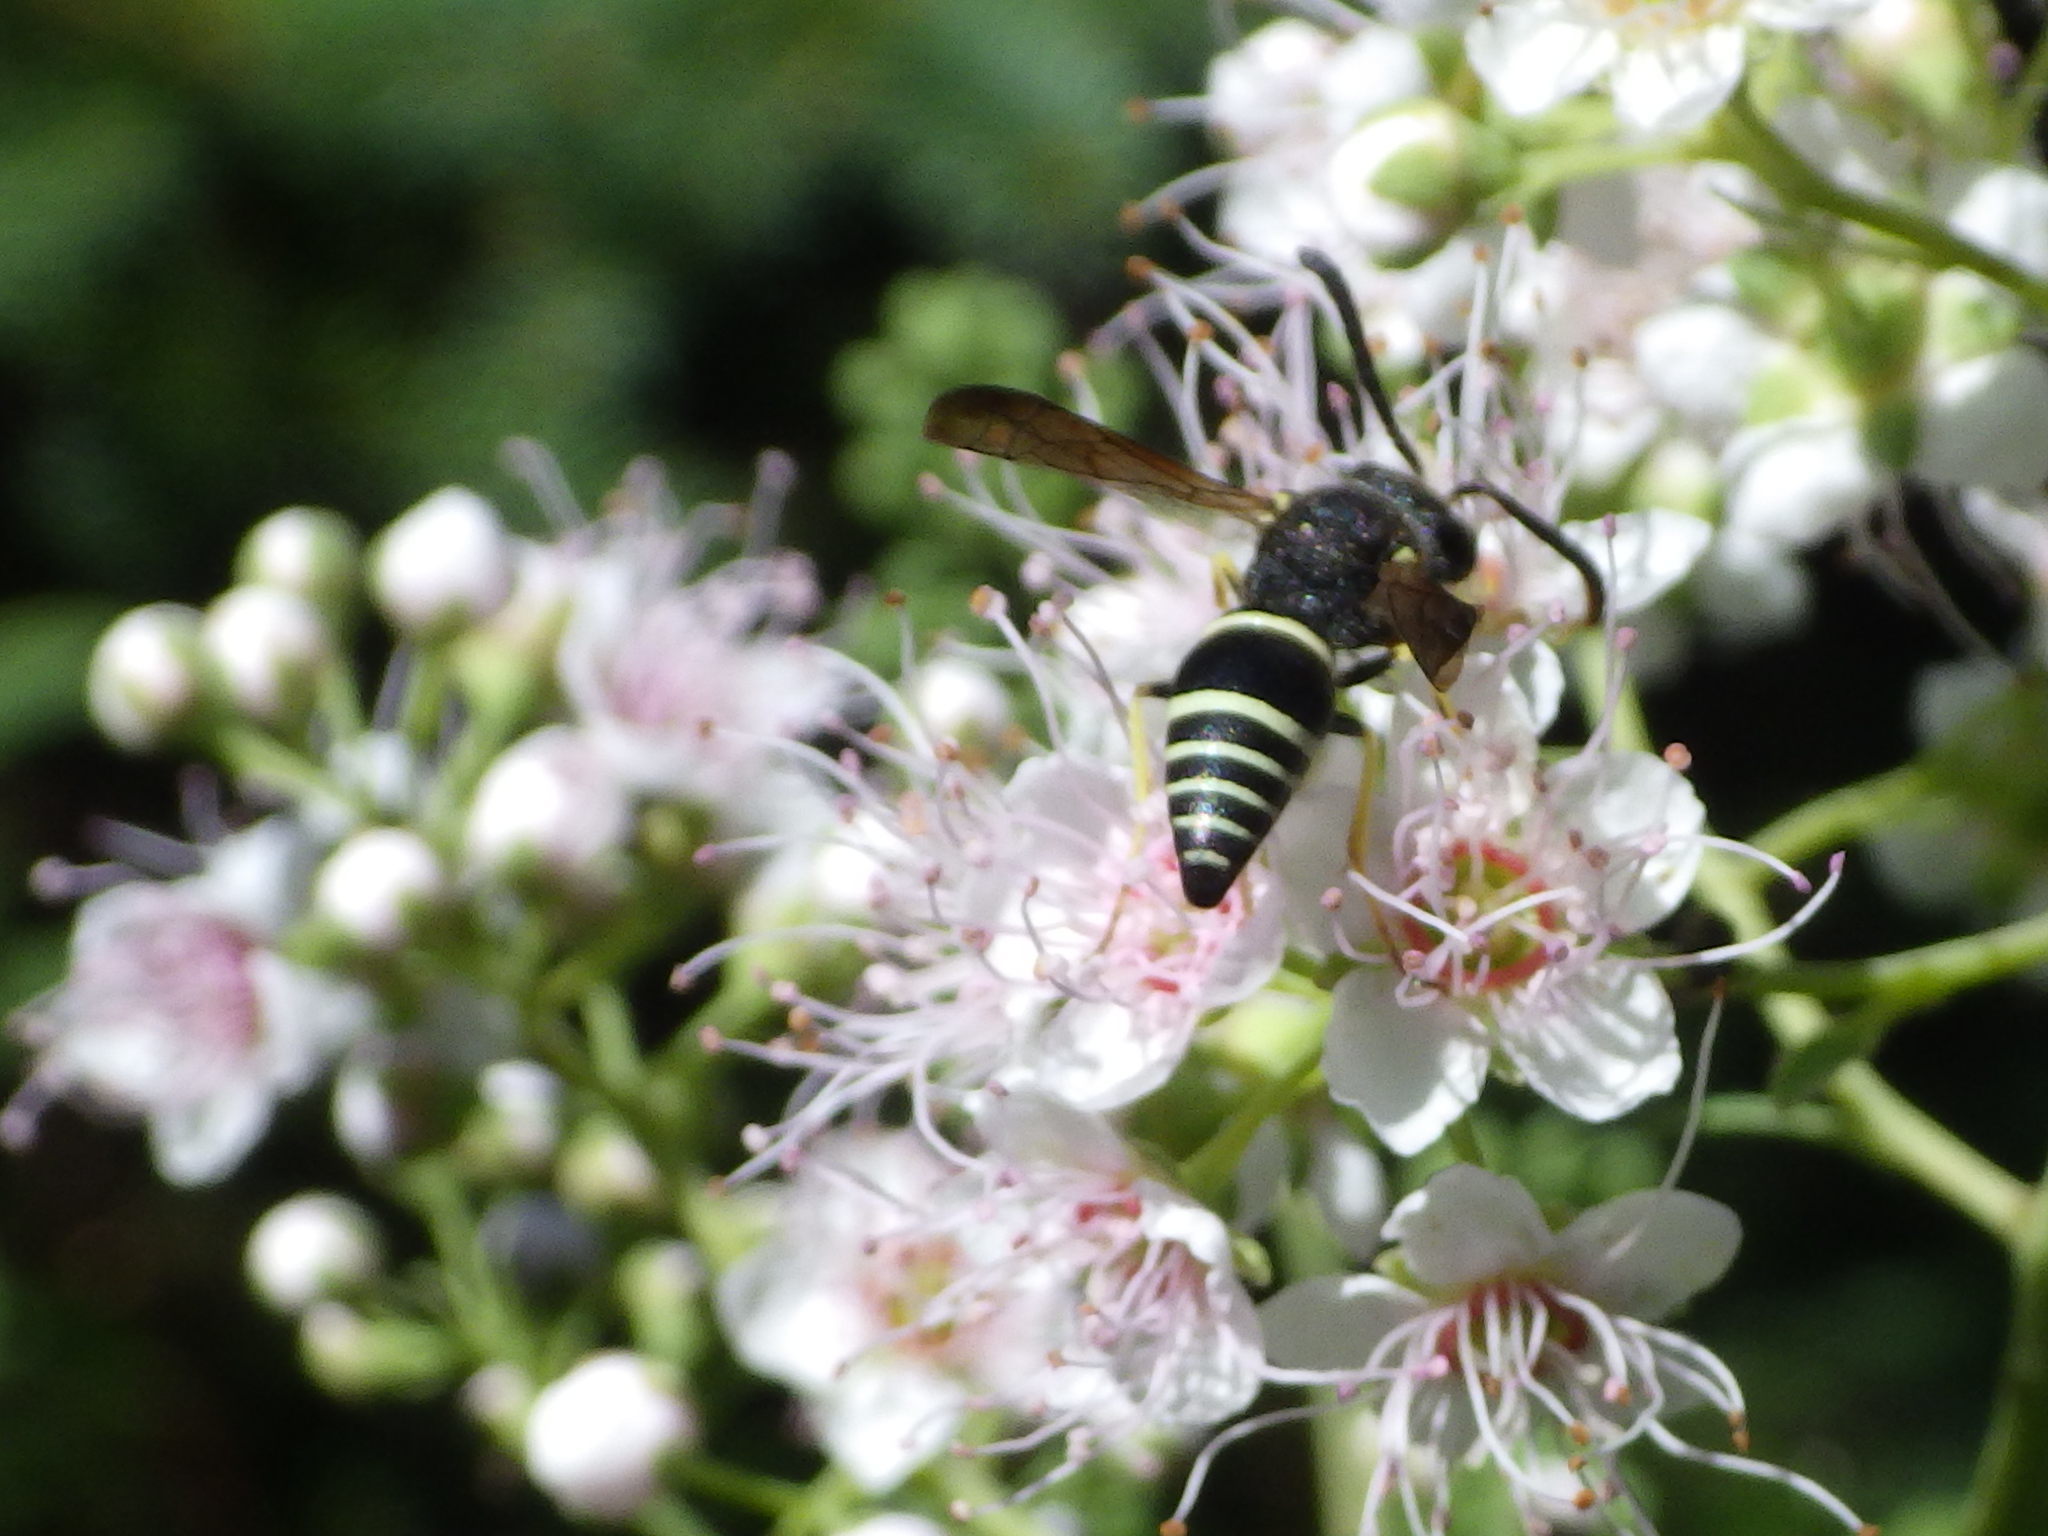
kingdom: Animalia
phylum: Arthropoda
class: Insecta
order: Hymenoptera
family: Vespidae
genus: Ancistrocerus
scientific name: Ancistrocerus
